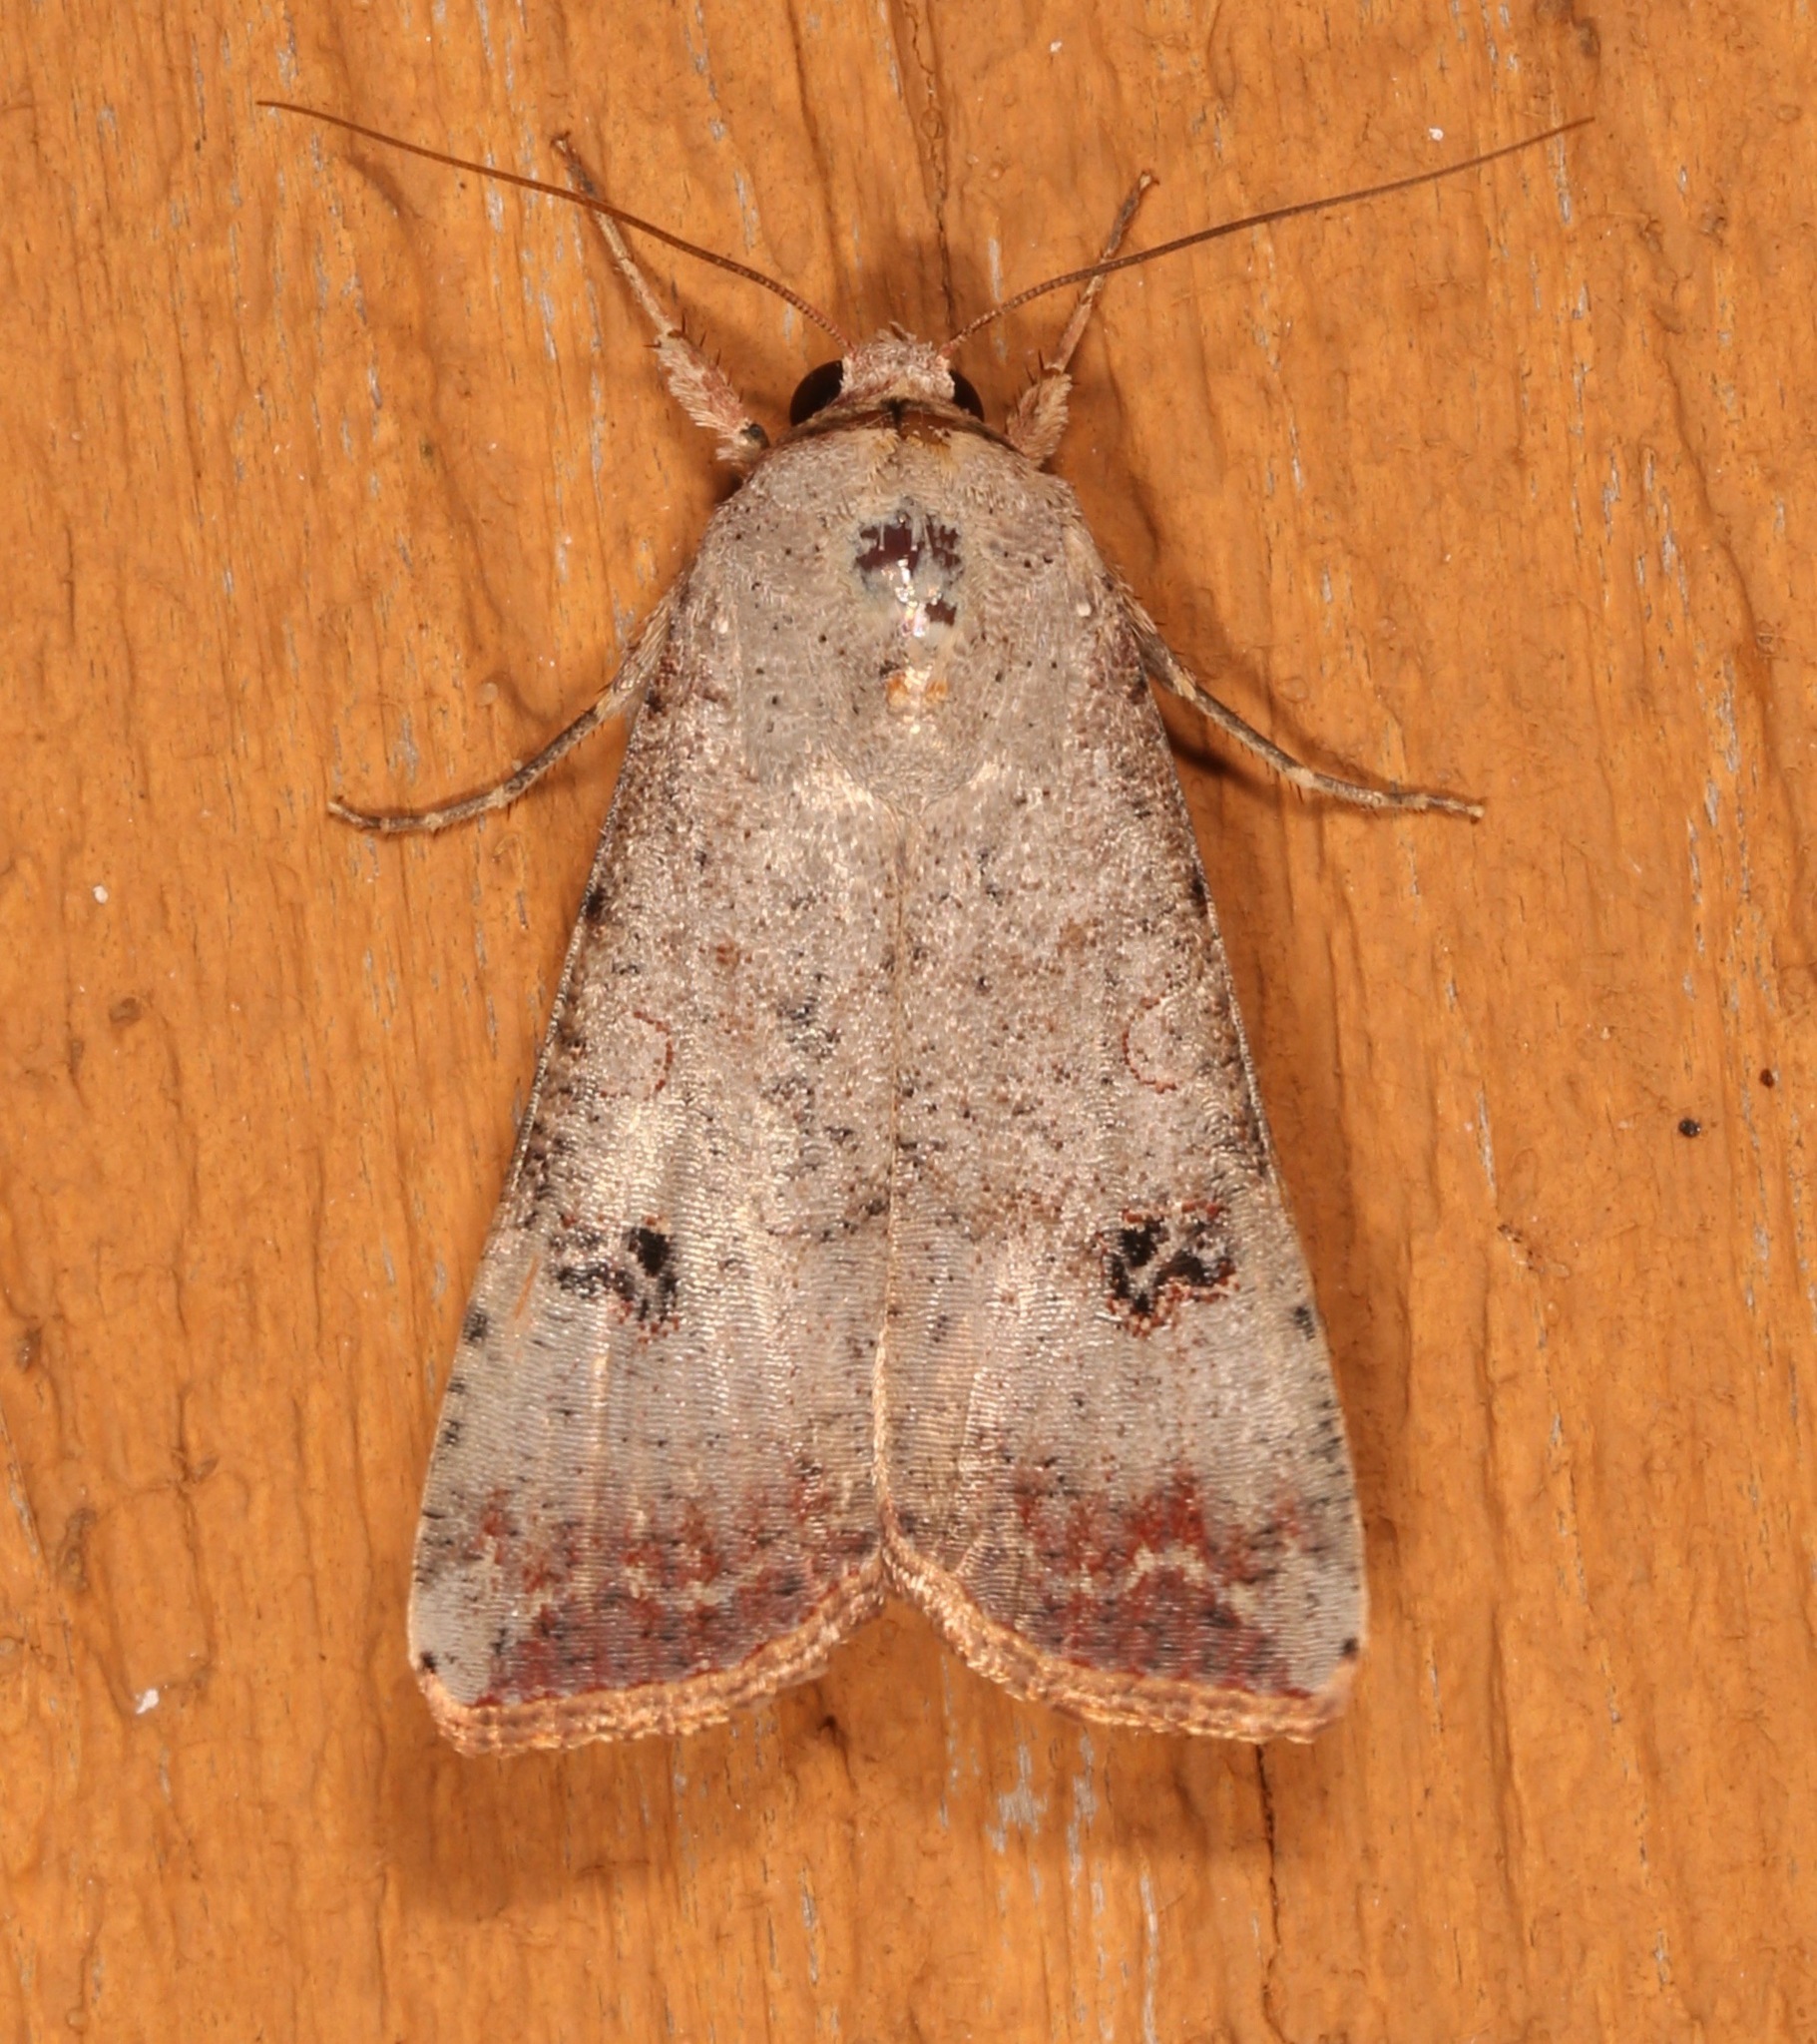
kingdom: Animalia
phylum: Arthropoda
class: Insecta
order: Lepidoptera
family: Noctuidae
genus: Anicla
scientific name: Anicla infecta
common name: Green cutworm
